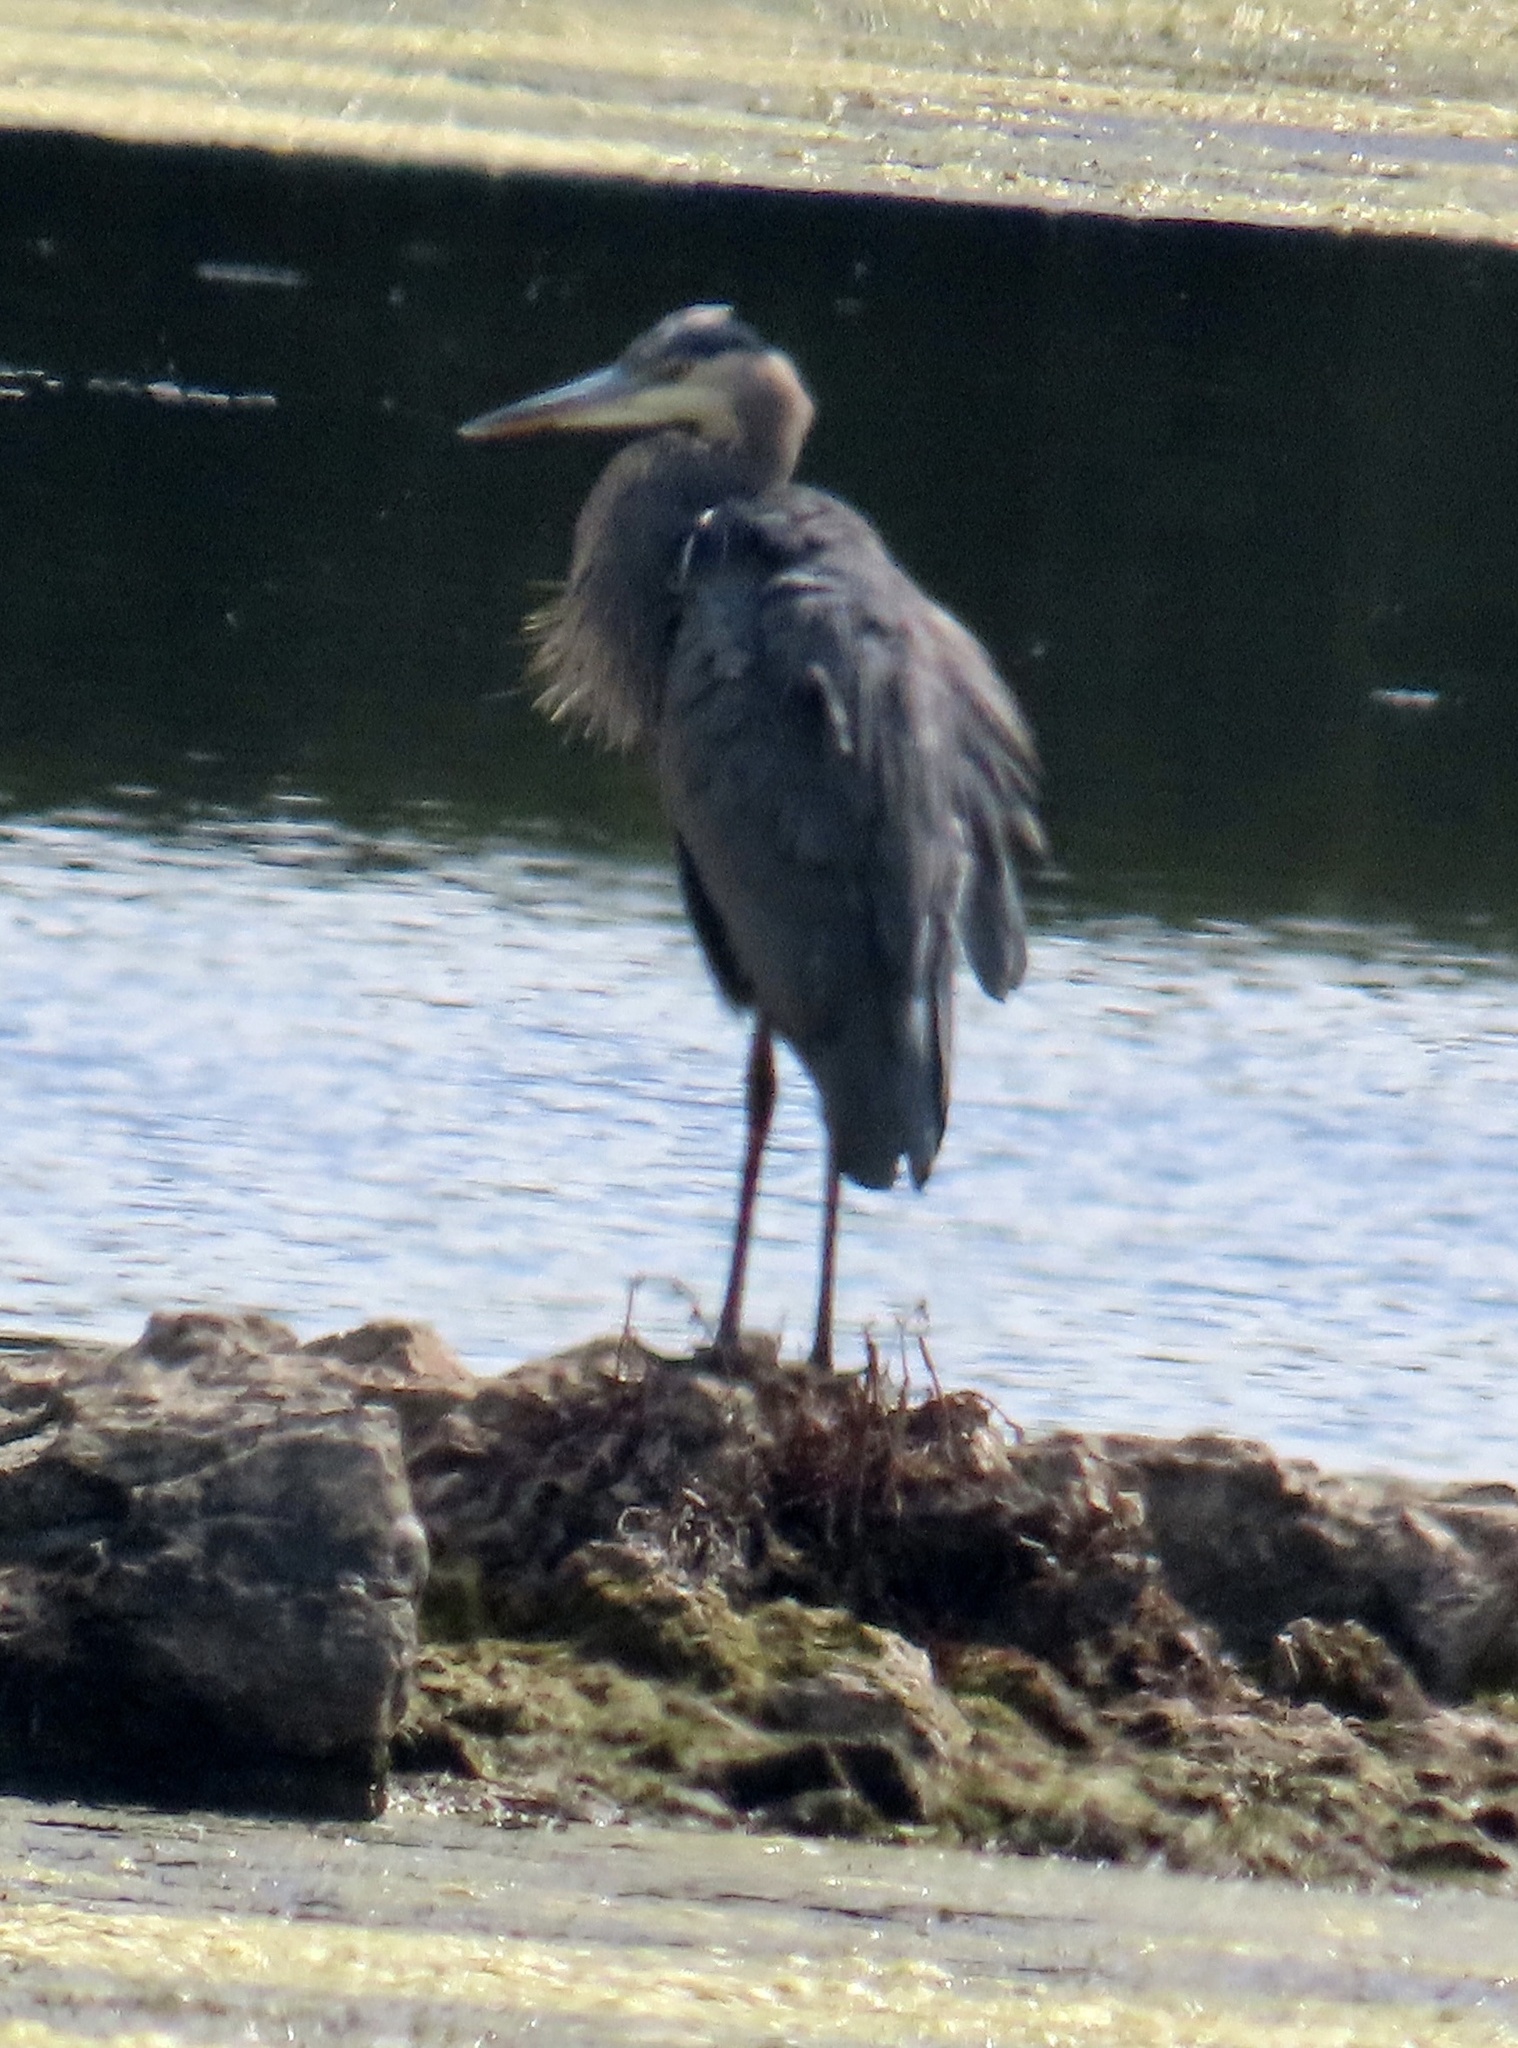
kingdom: Animalia
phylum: Chordata
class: Aves
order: Pelecaniformes
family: Ardeidae
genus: Ardea
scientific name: Ardea herodias
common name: Great blue heron
